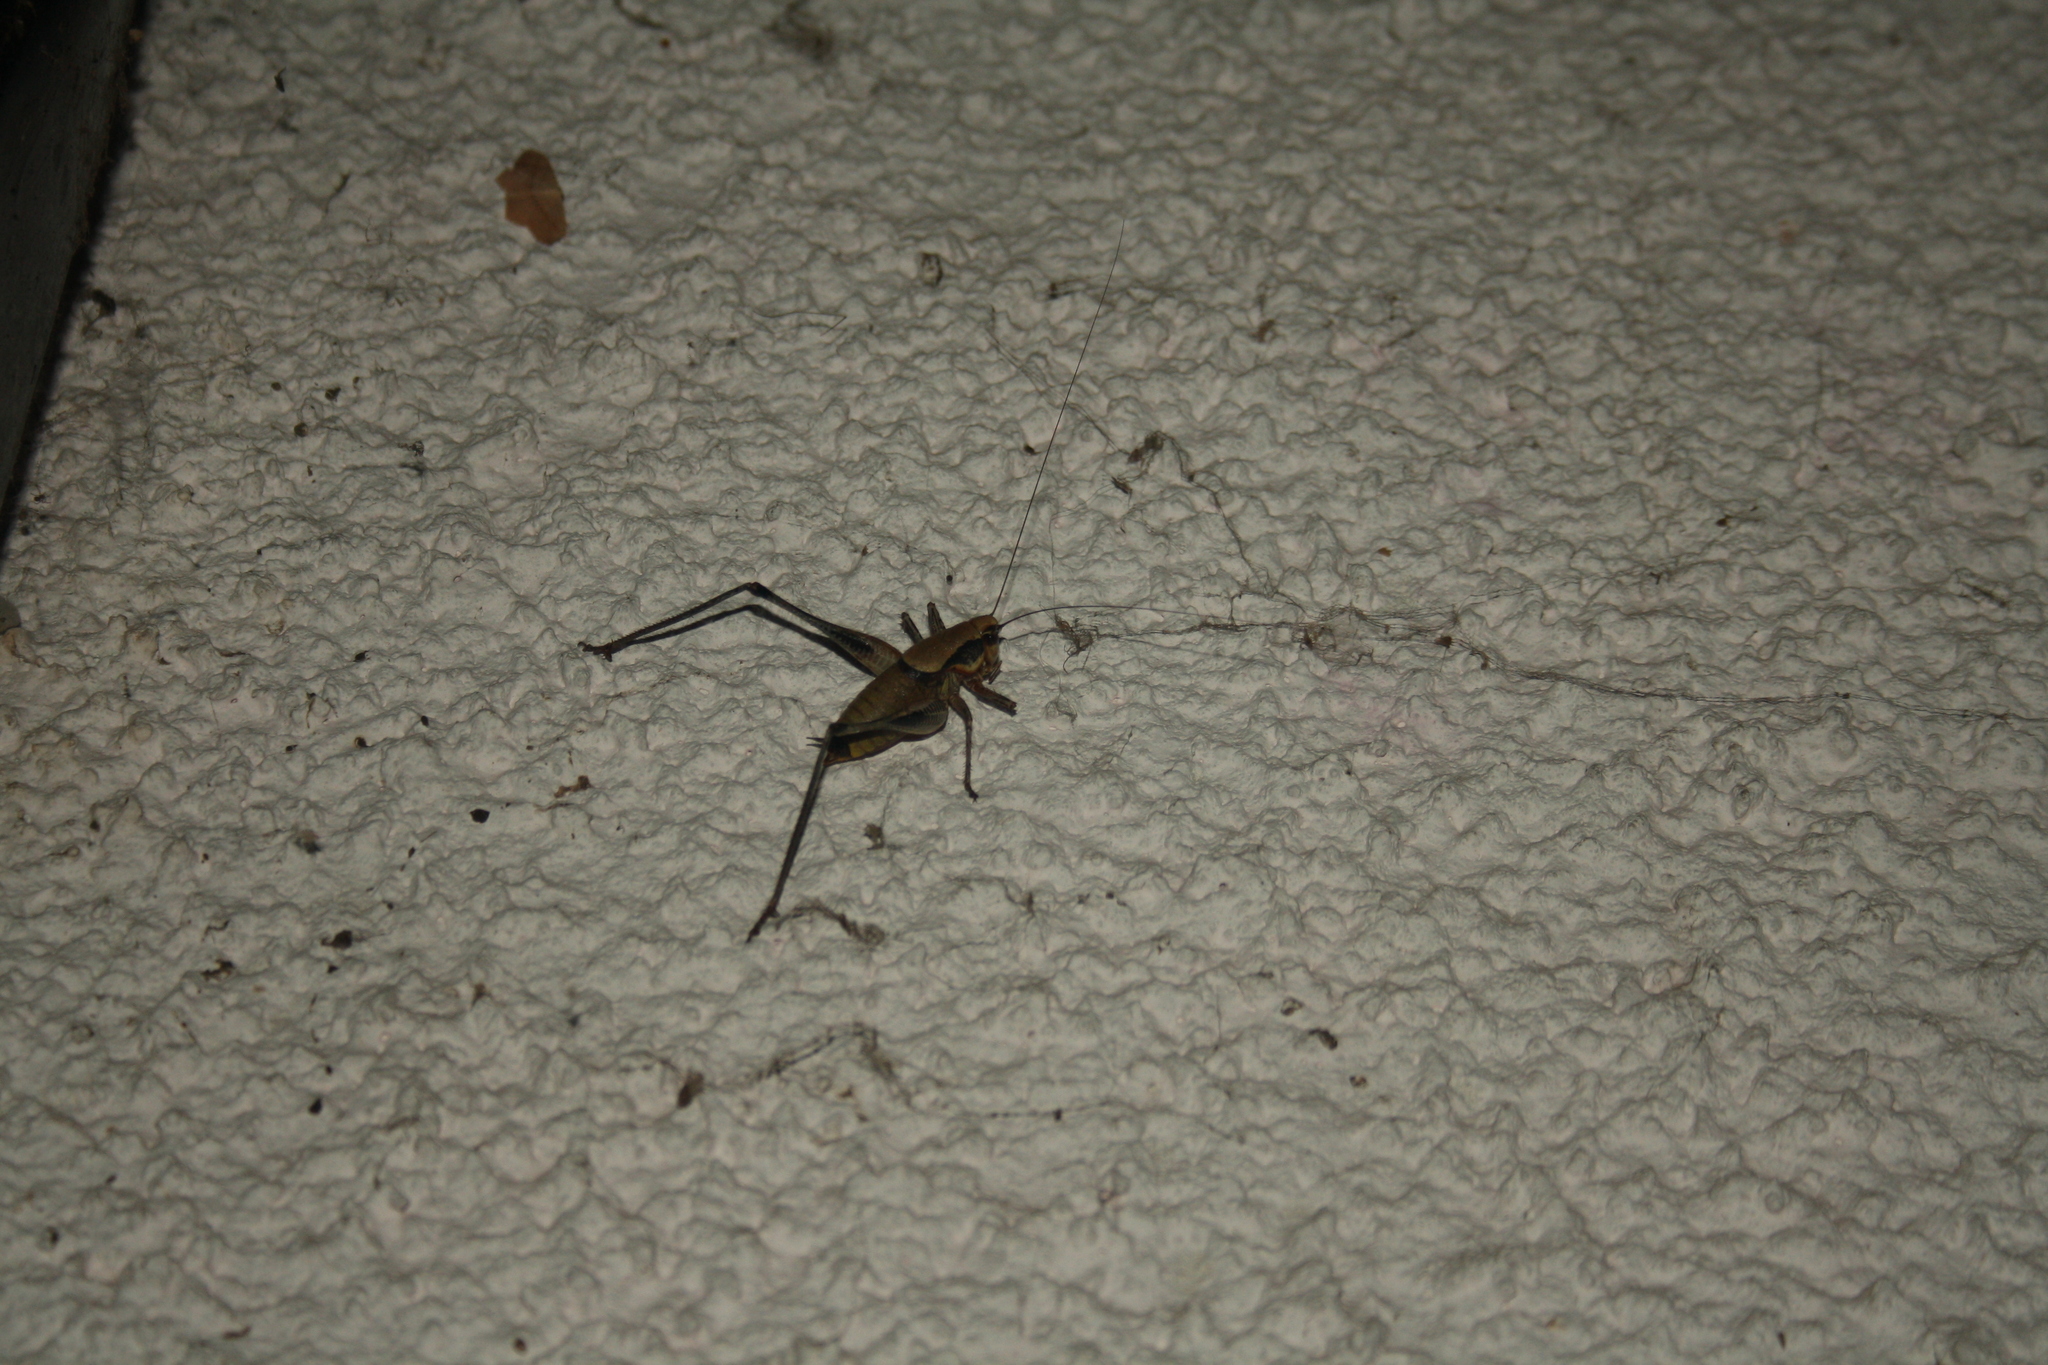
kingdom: Animalia
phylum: Arthropoda
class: Insecta
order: Orthoptera
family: Tettigoniidae
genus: Eupholidoptera
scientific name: Eupholidoptera megastyla
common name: Greek marbled bush-cricket
